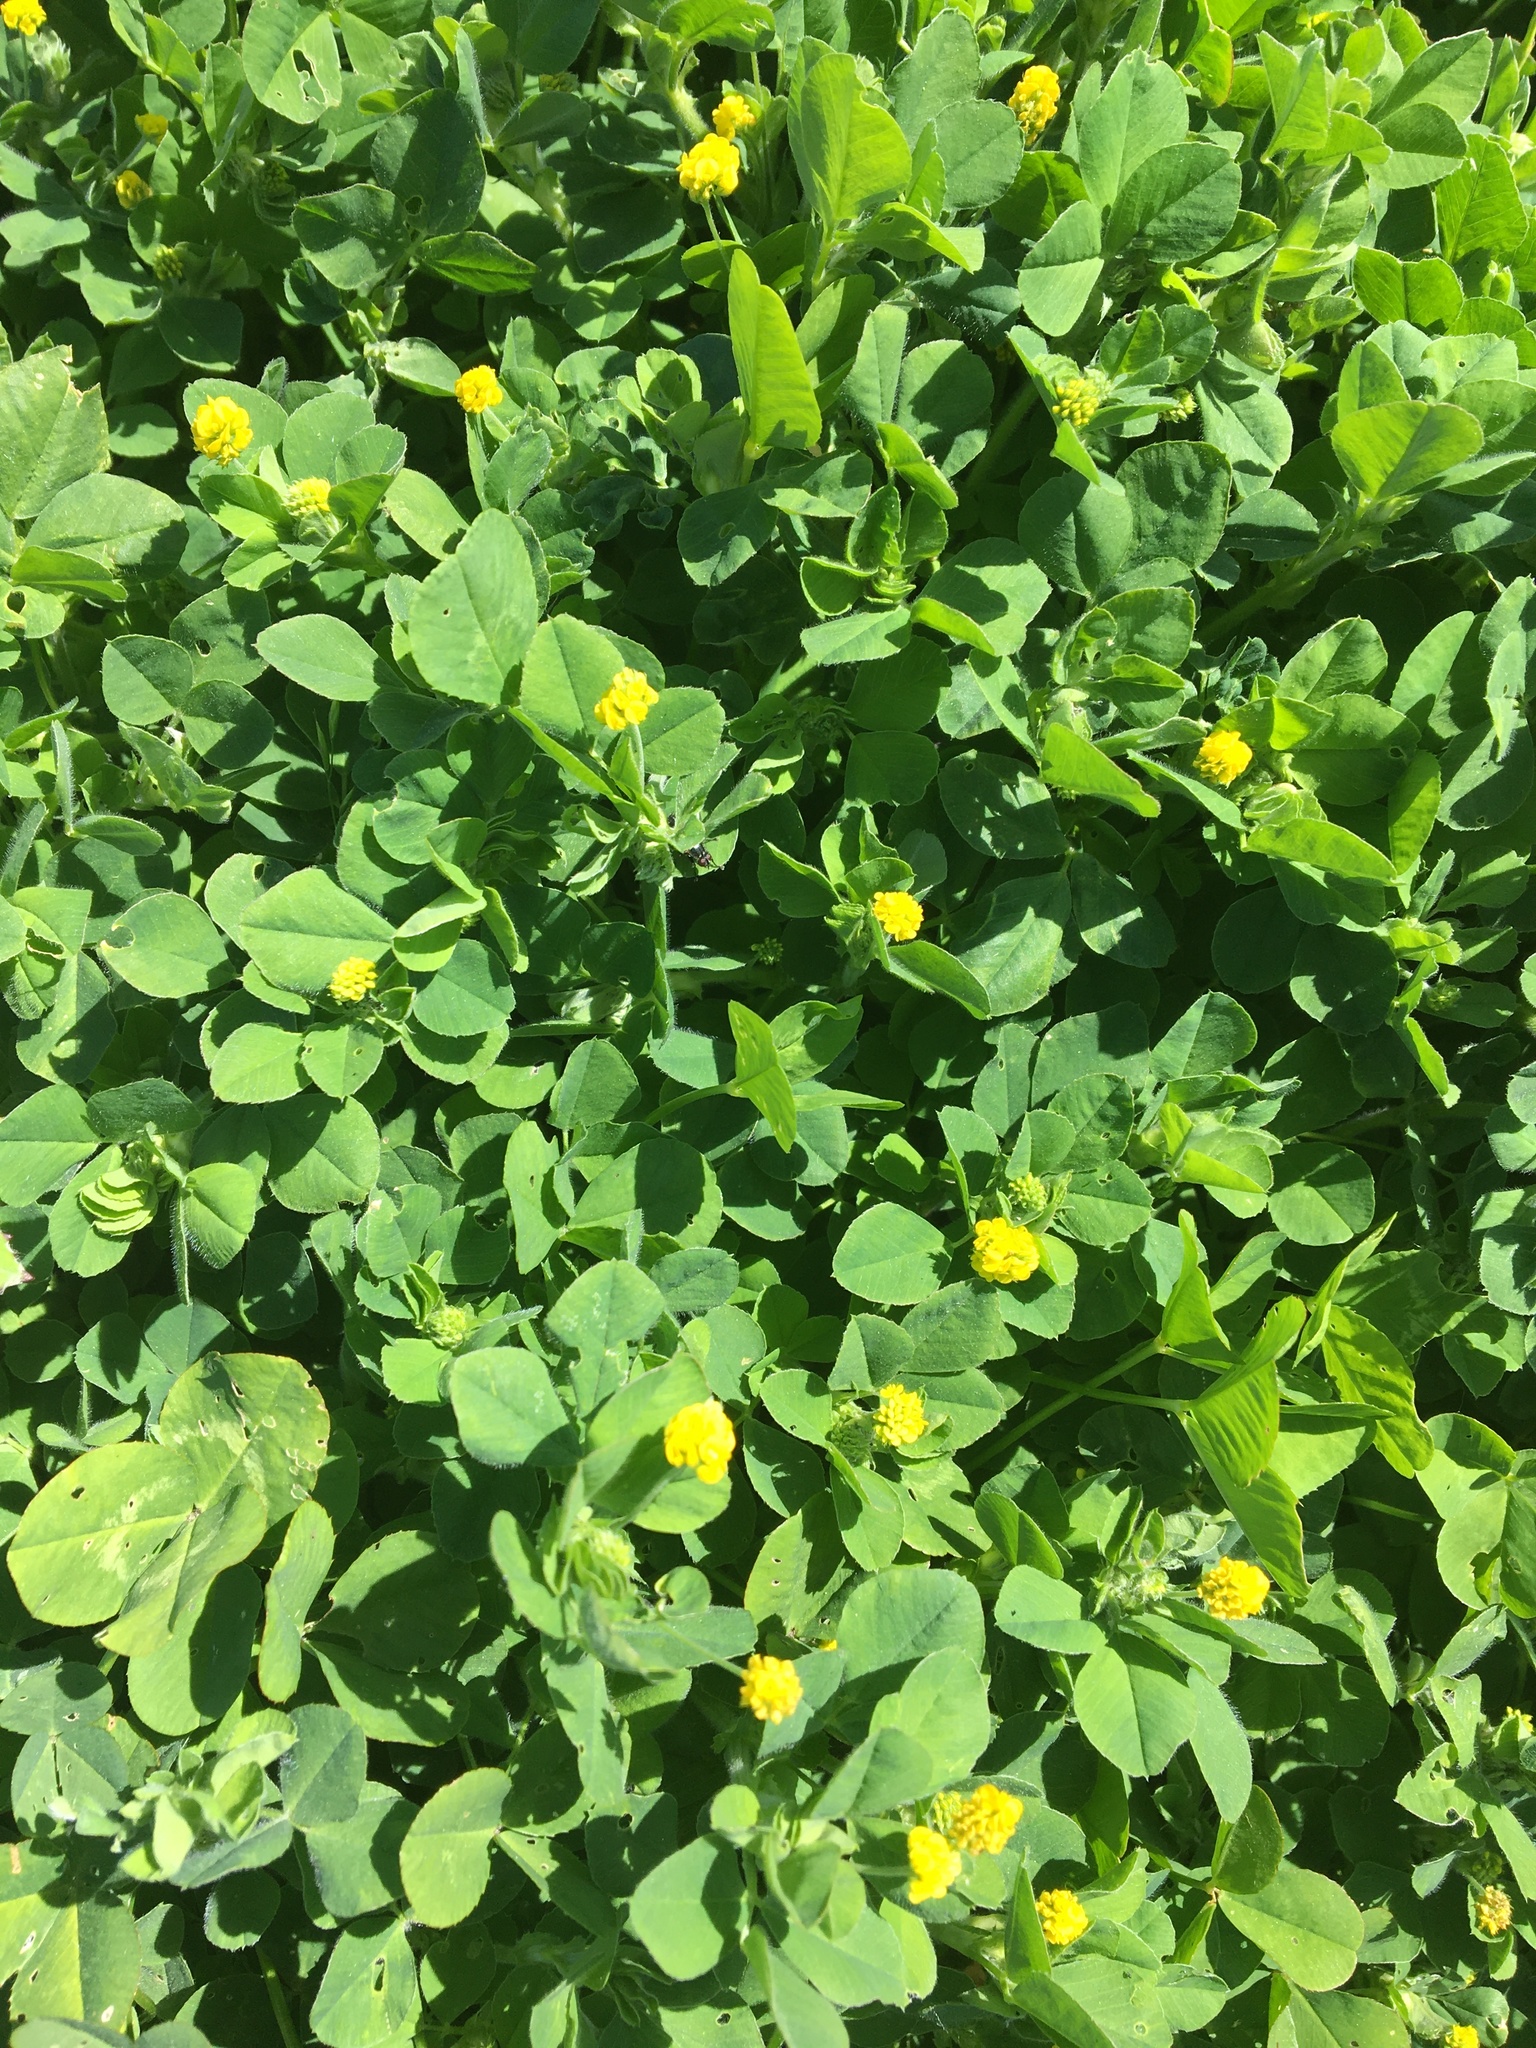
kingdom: Plantae
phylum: Tracheophyta
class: Magnoliopsida
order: Fabales
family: Fabaceae
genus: Medicago
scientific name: Medicago lupulina
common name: Black medick
